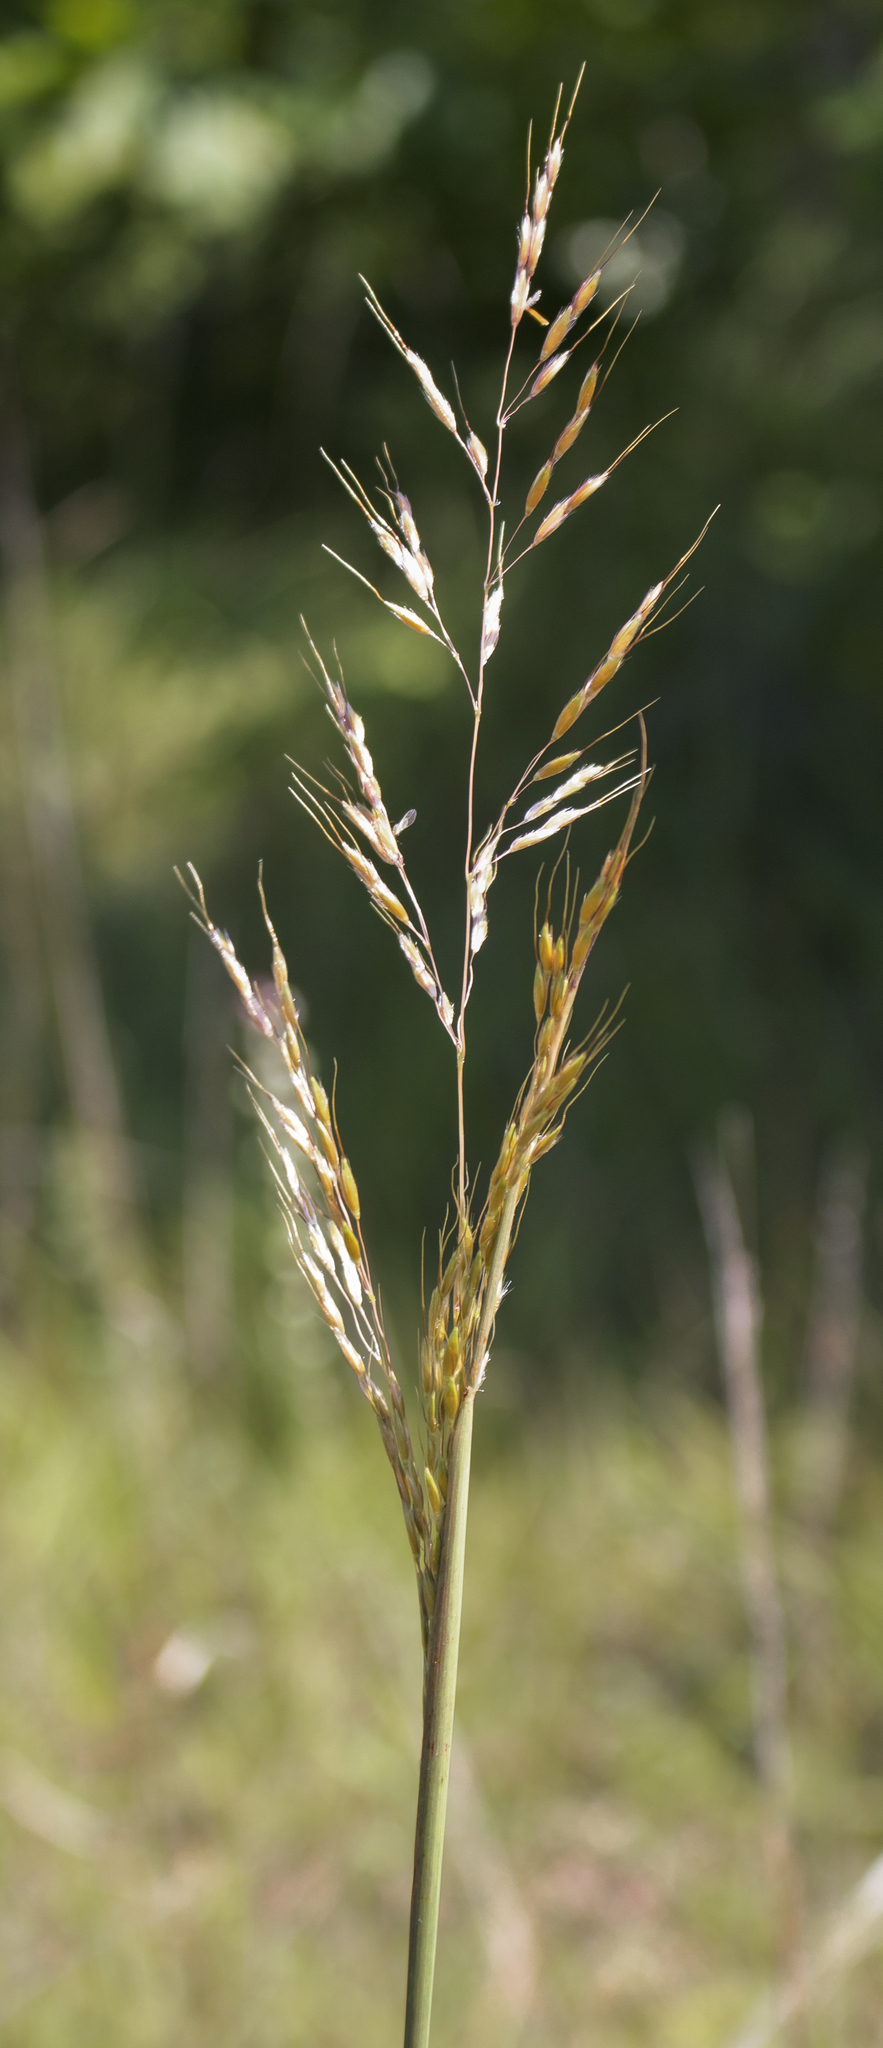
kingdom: Plantae
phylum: Tracheophyta
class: Liliopsida
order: Poales
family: Poaceae
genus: Sorghastrum
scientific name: Sorghastrum nutans
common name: Indian grass
